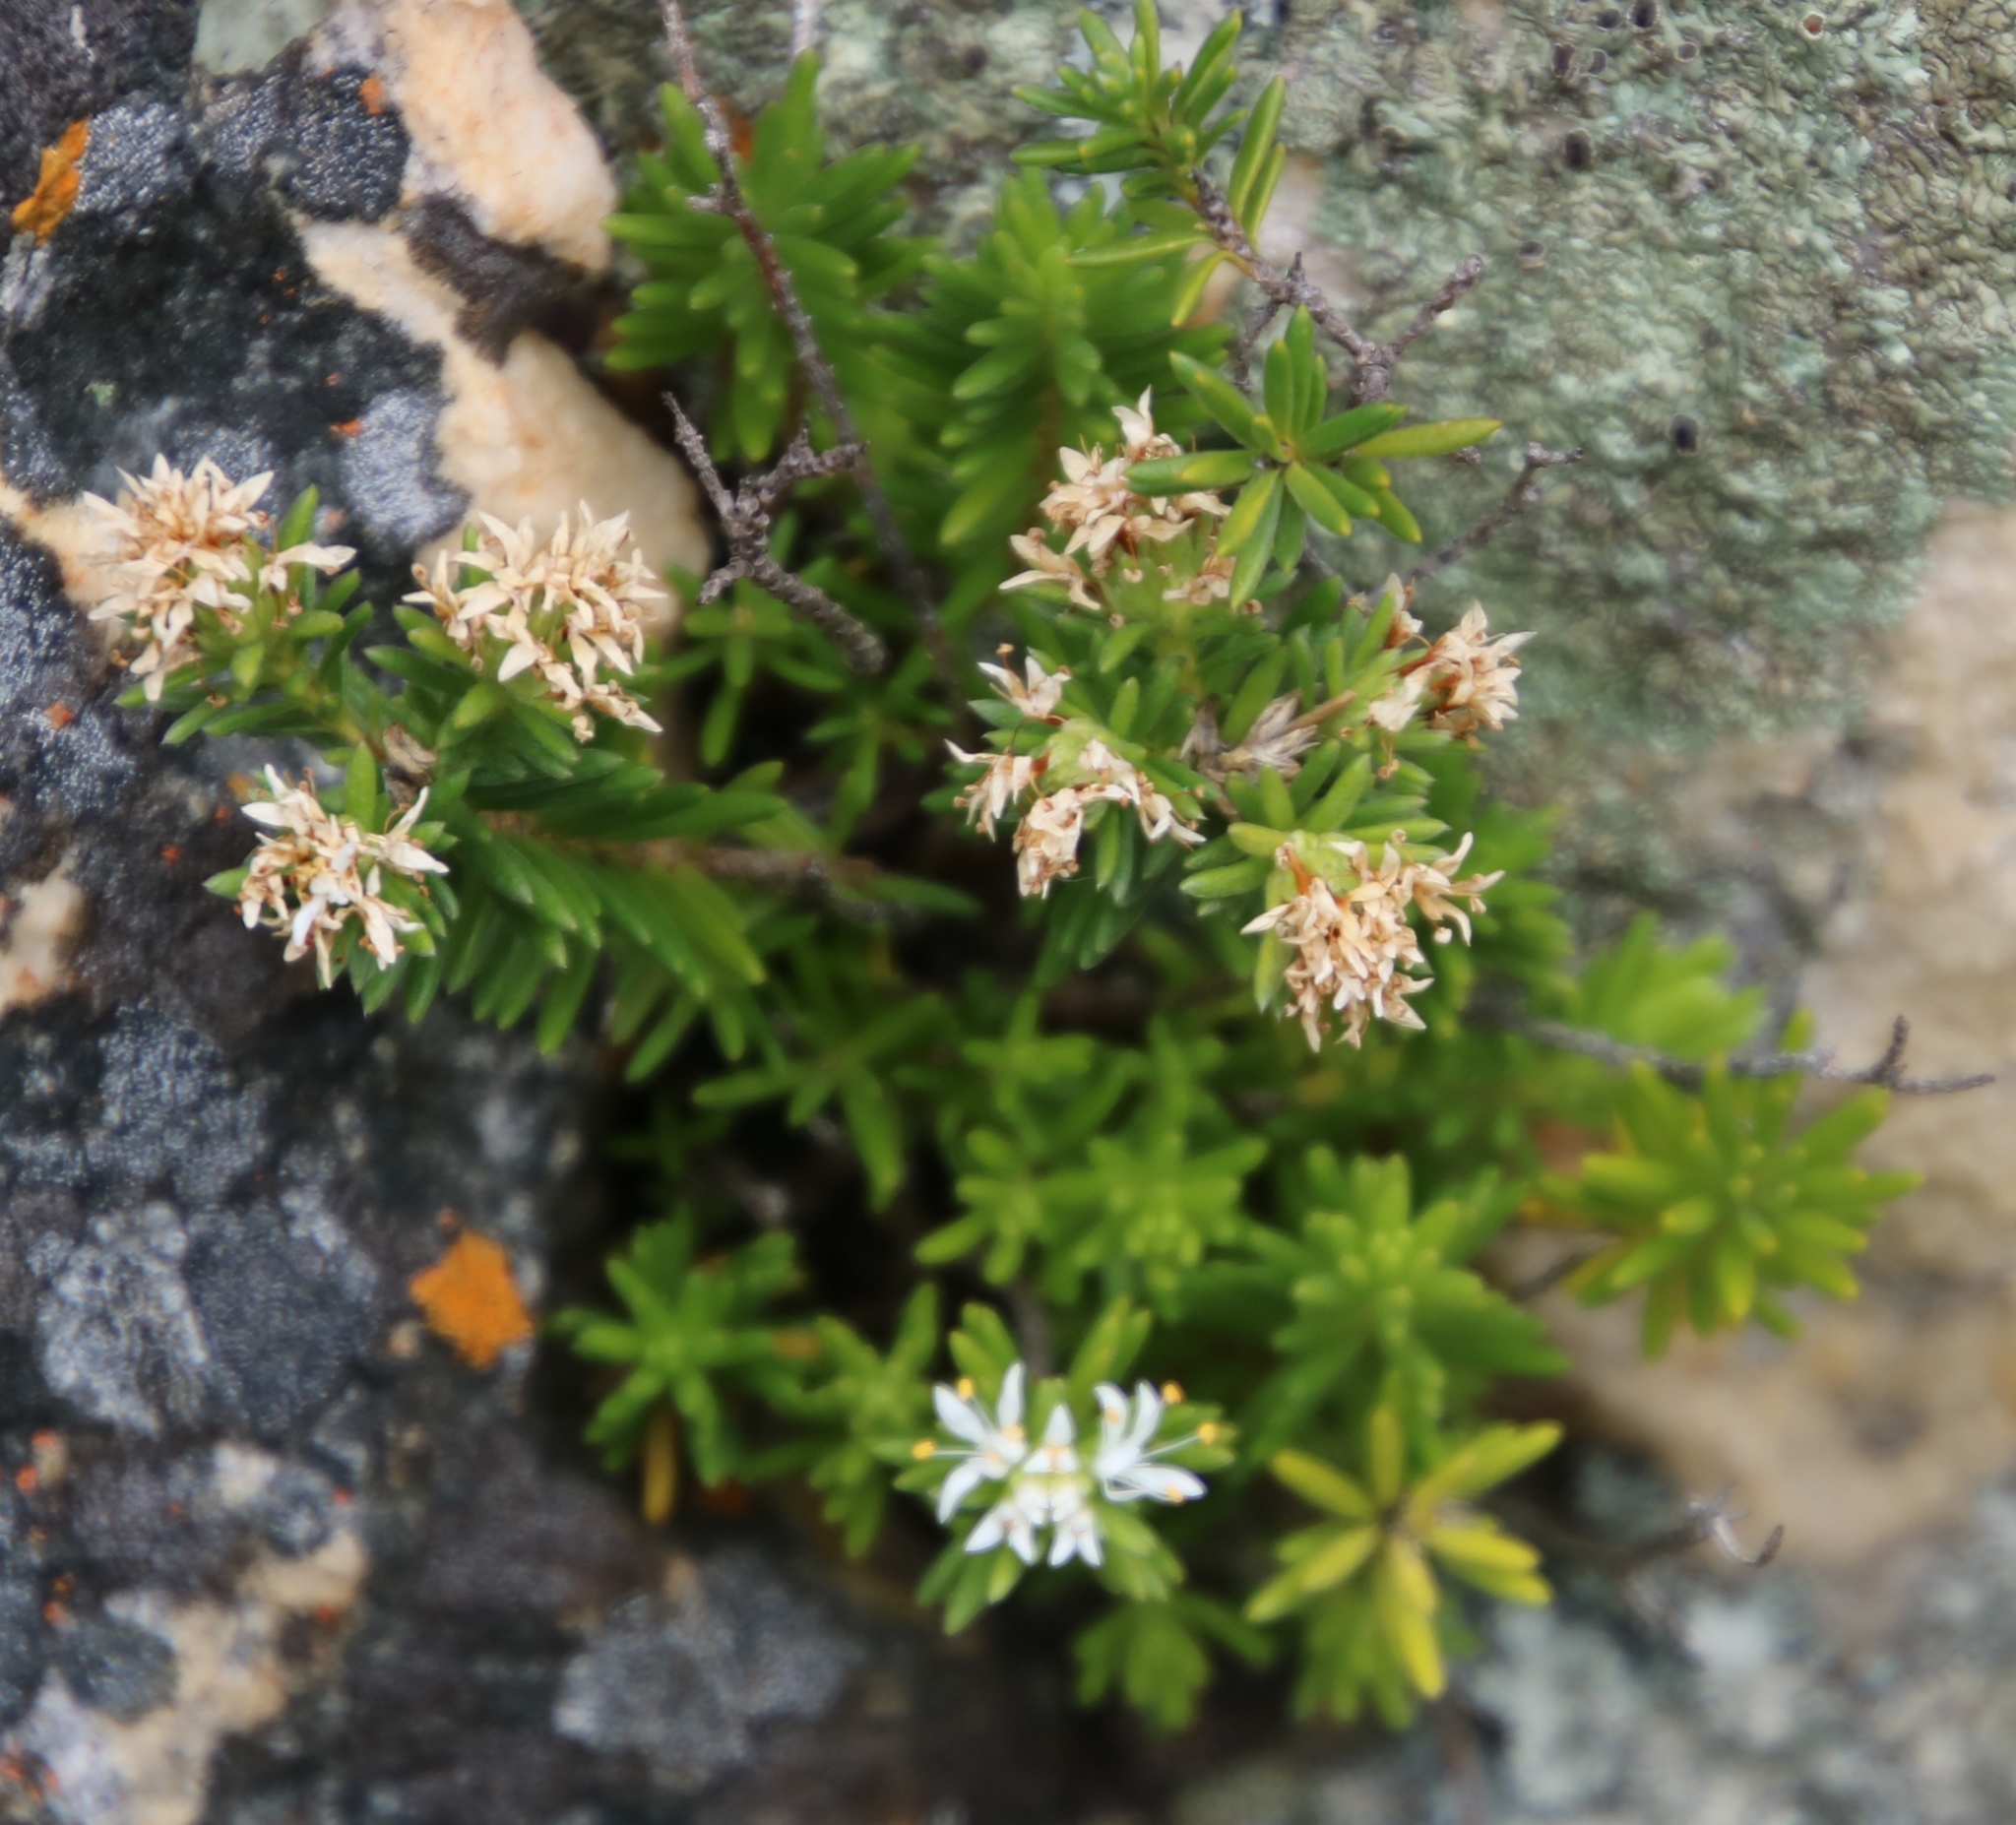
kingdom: Plantae
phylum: Tracheophyta
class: Magnoliopsida
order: Lamiales
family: Stilbaceae
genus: Stilbe
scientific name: Stilbe rupestris
